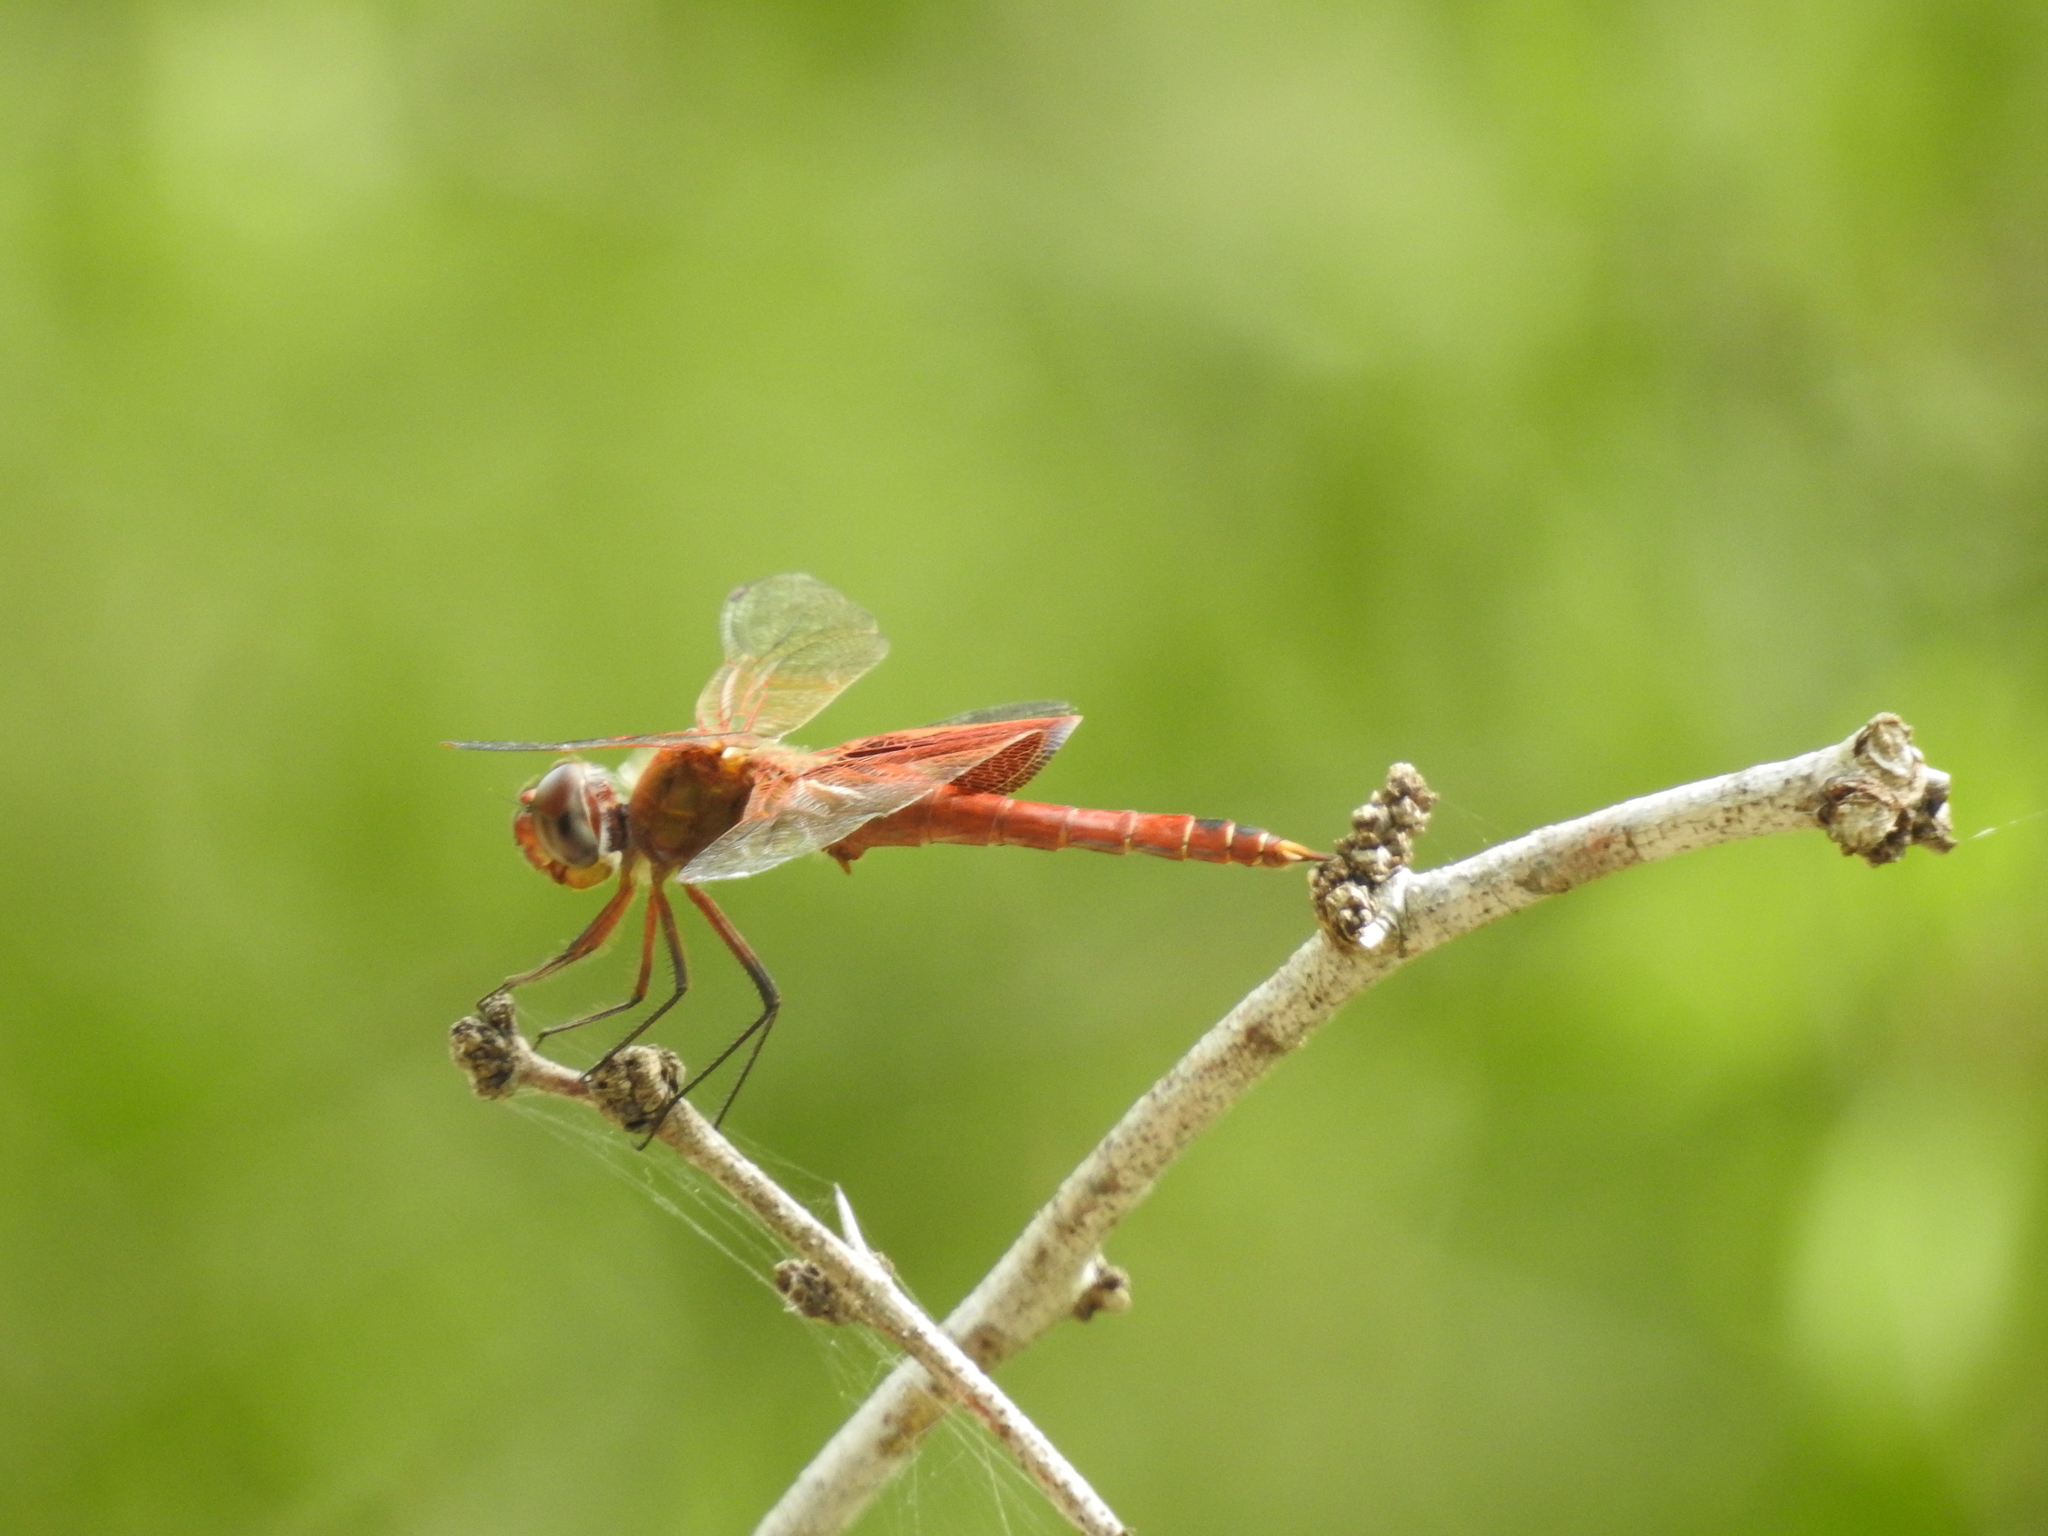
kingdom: Animalia
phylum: Arthropoda
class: Insecta
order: Odonata
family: Libellulidae
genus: Tramea
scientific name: Tramea onusta
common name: Red saddlebags
